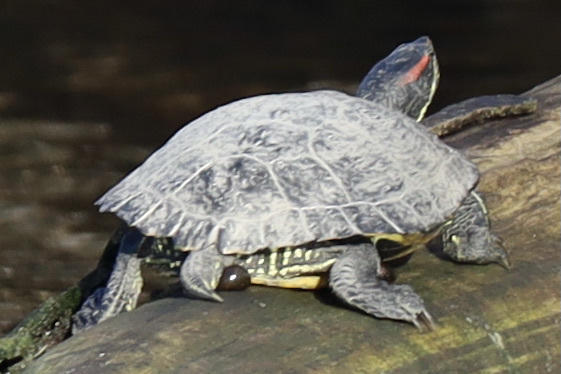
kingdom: Animalia
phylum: Chordata
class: Testudines
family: Emydidae
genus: Trachemys
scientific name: Trachemys scripta
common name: Slider
